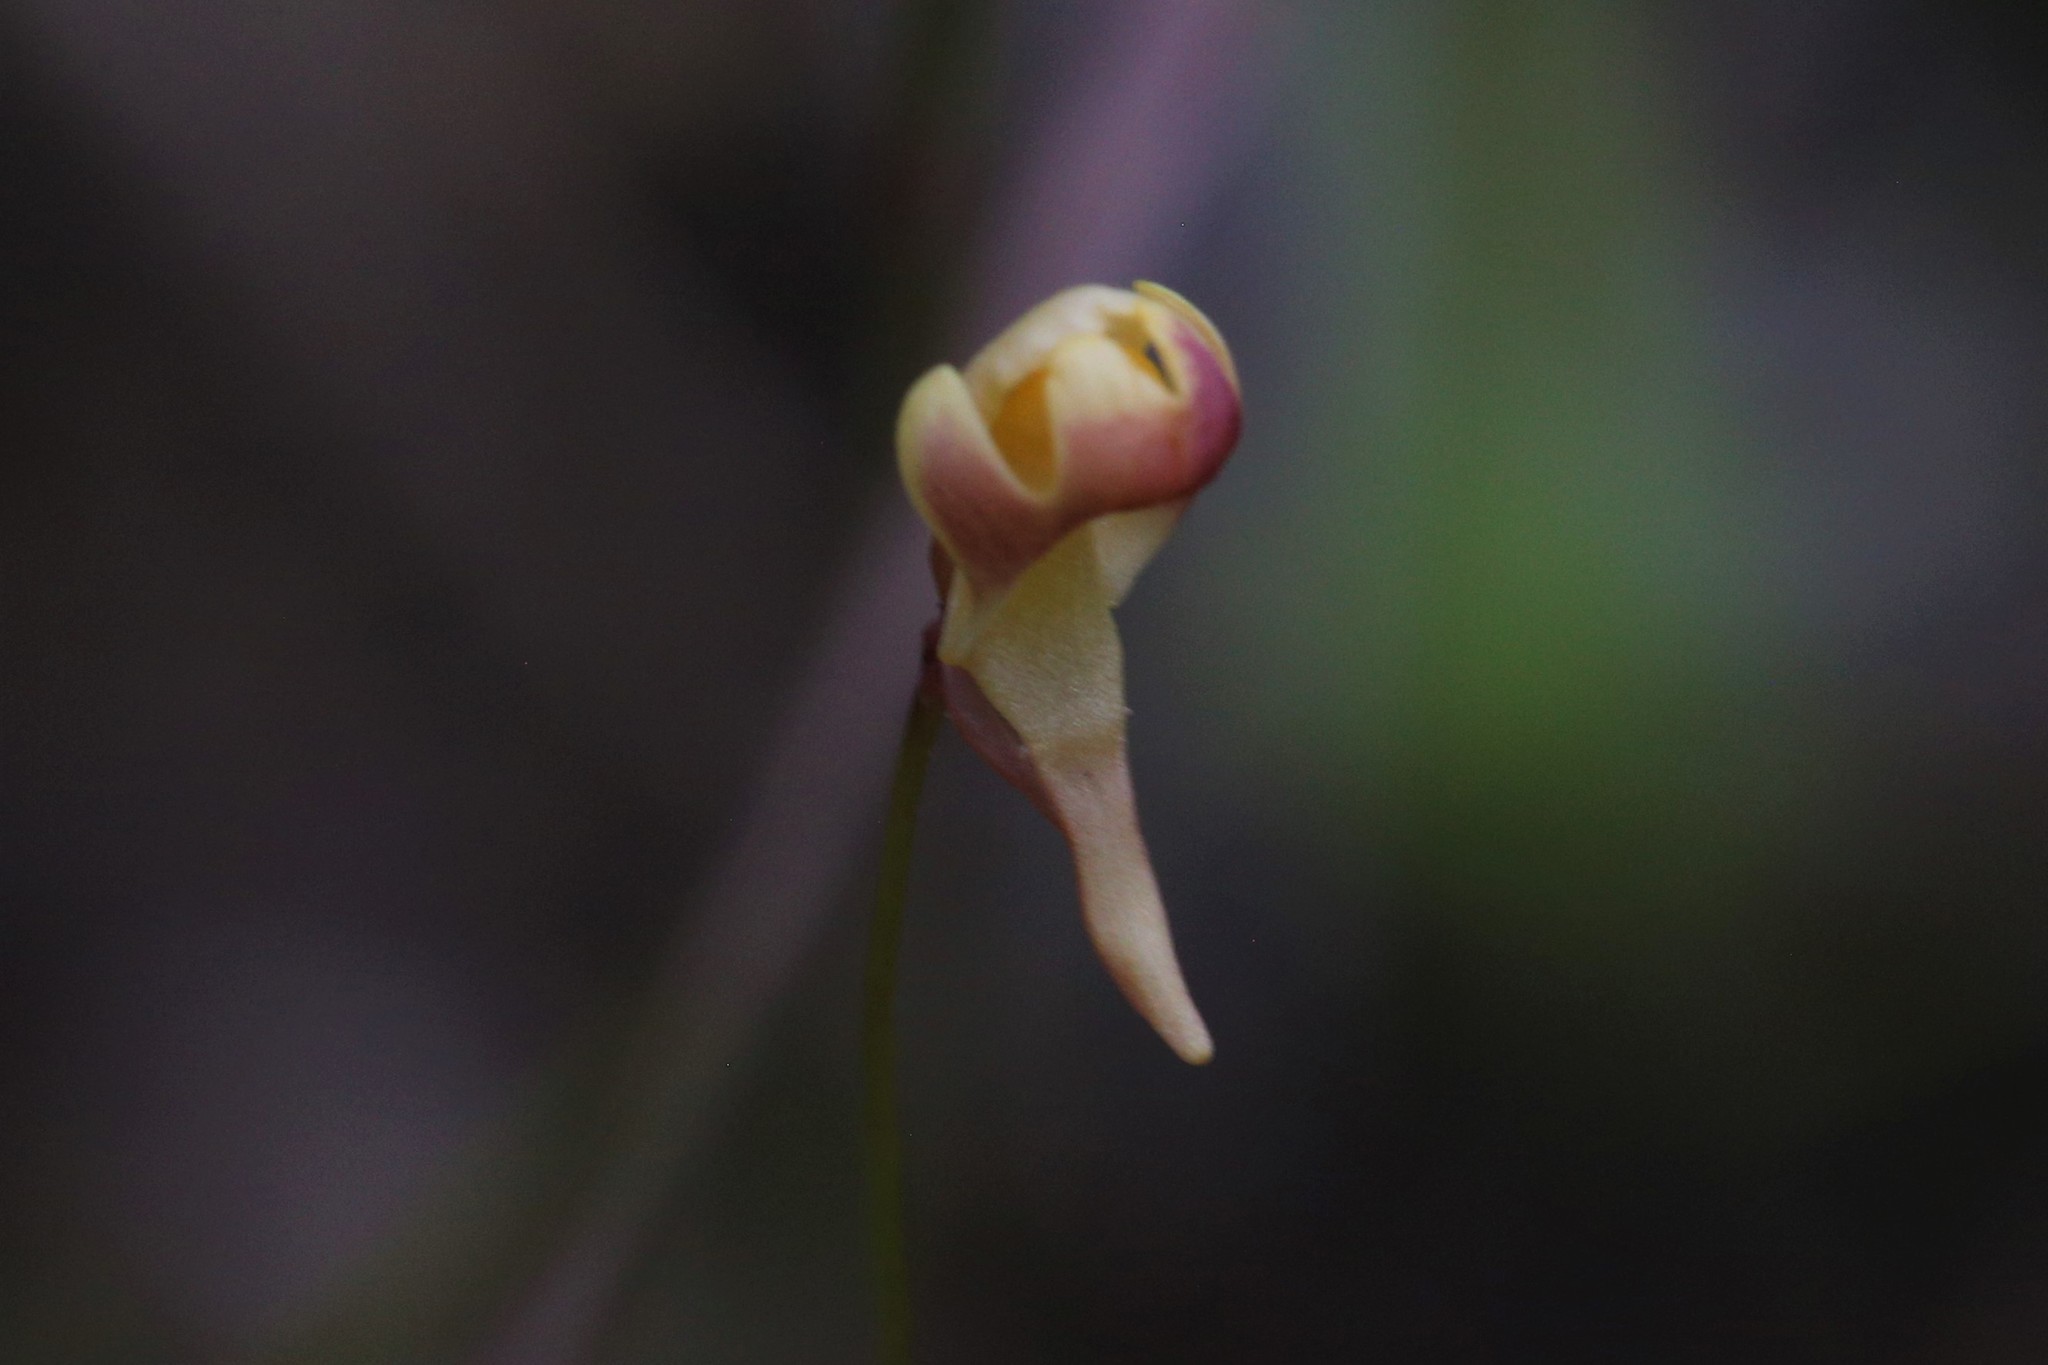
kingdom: Plantae
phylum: Tracheophyta
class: Magnoliopsida
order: Lamiales
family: Lentibulariaceae
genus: Utricularia
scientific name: Utricularia chrysantha
